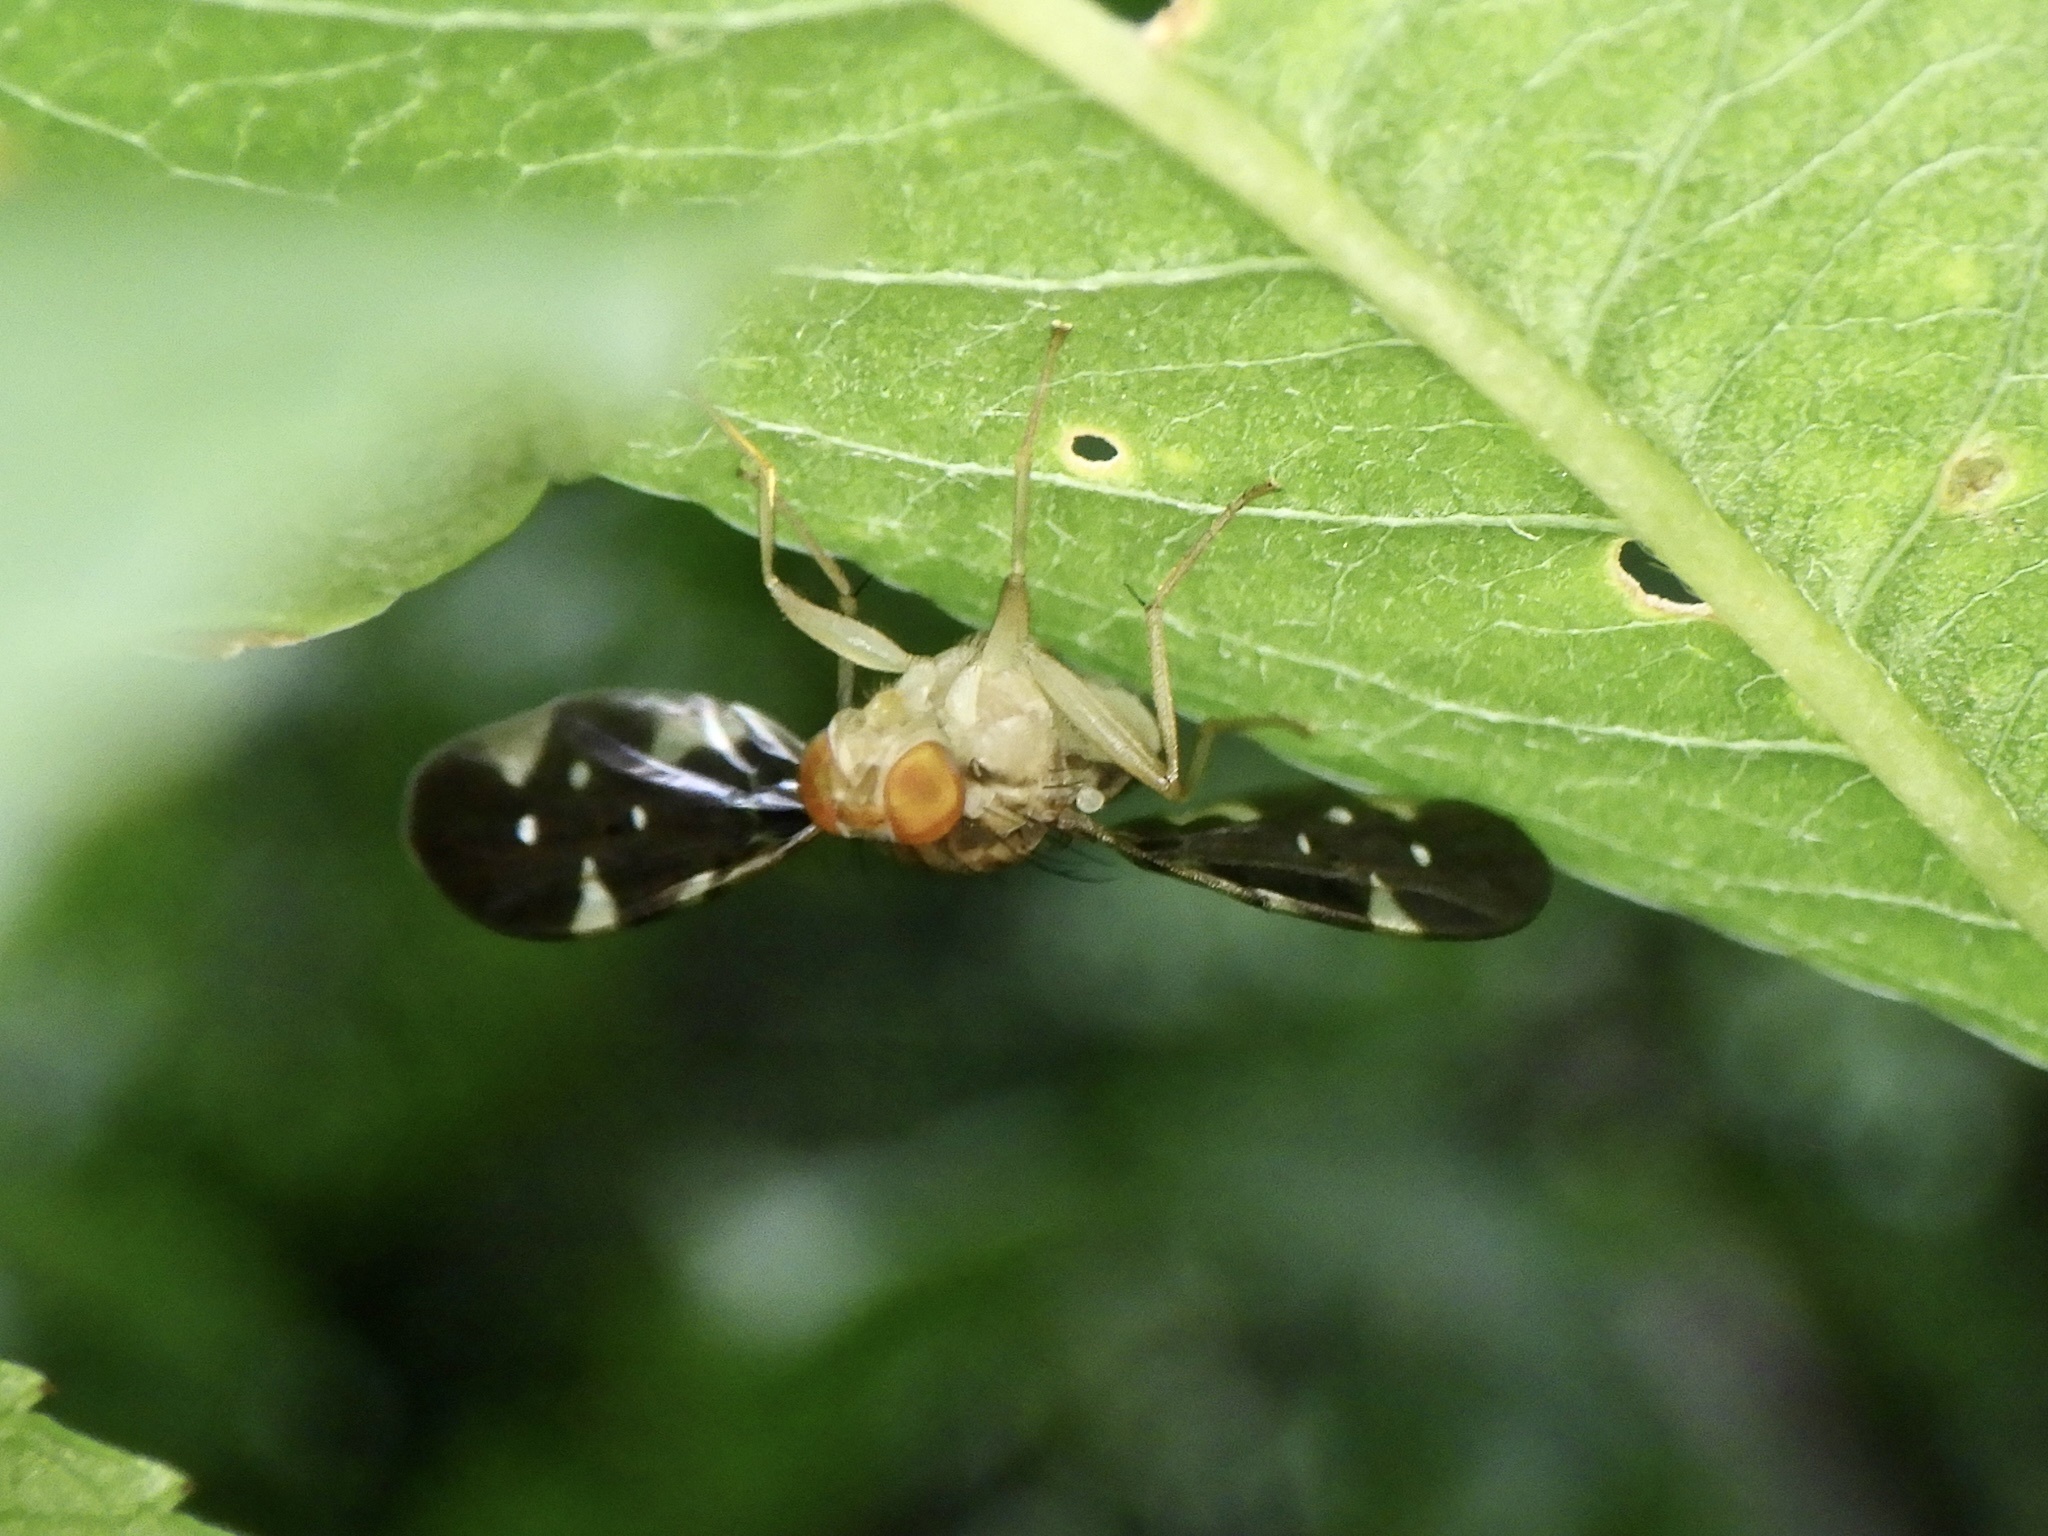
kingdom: Animalia
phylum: Arthropoda
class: Insecta
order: Diptera
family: Tephritidae
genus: Rioxoptilona
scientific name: Rioxoptilona formosana
